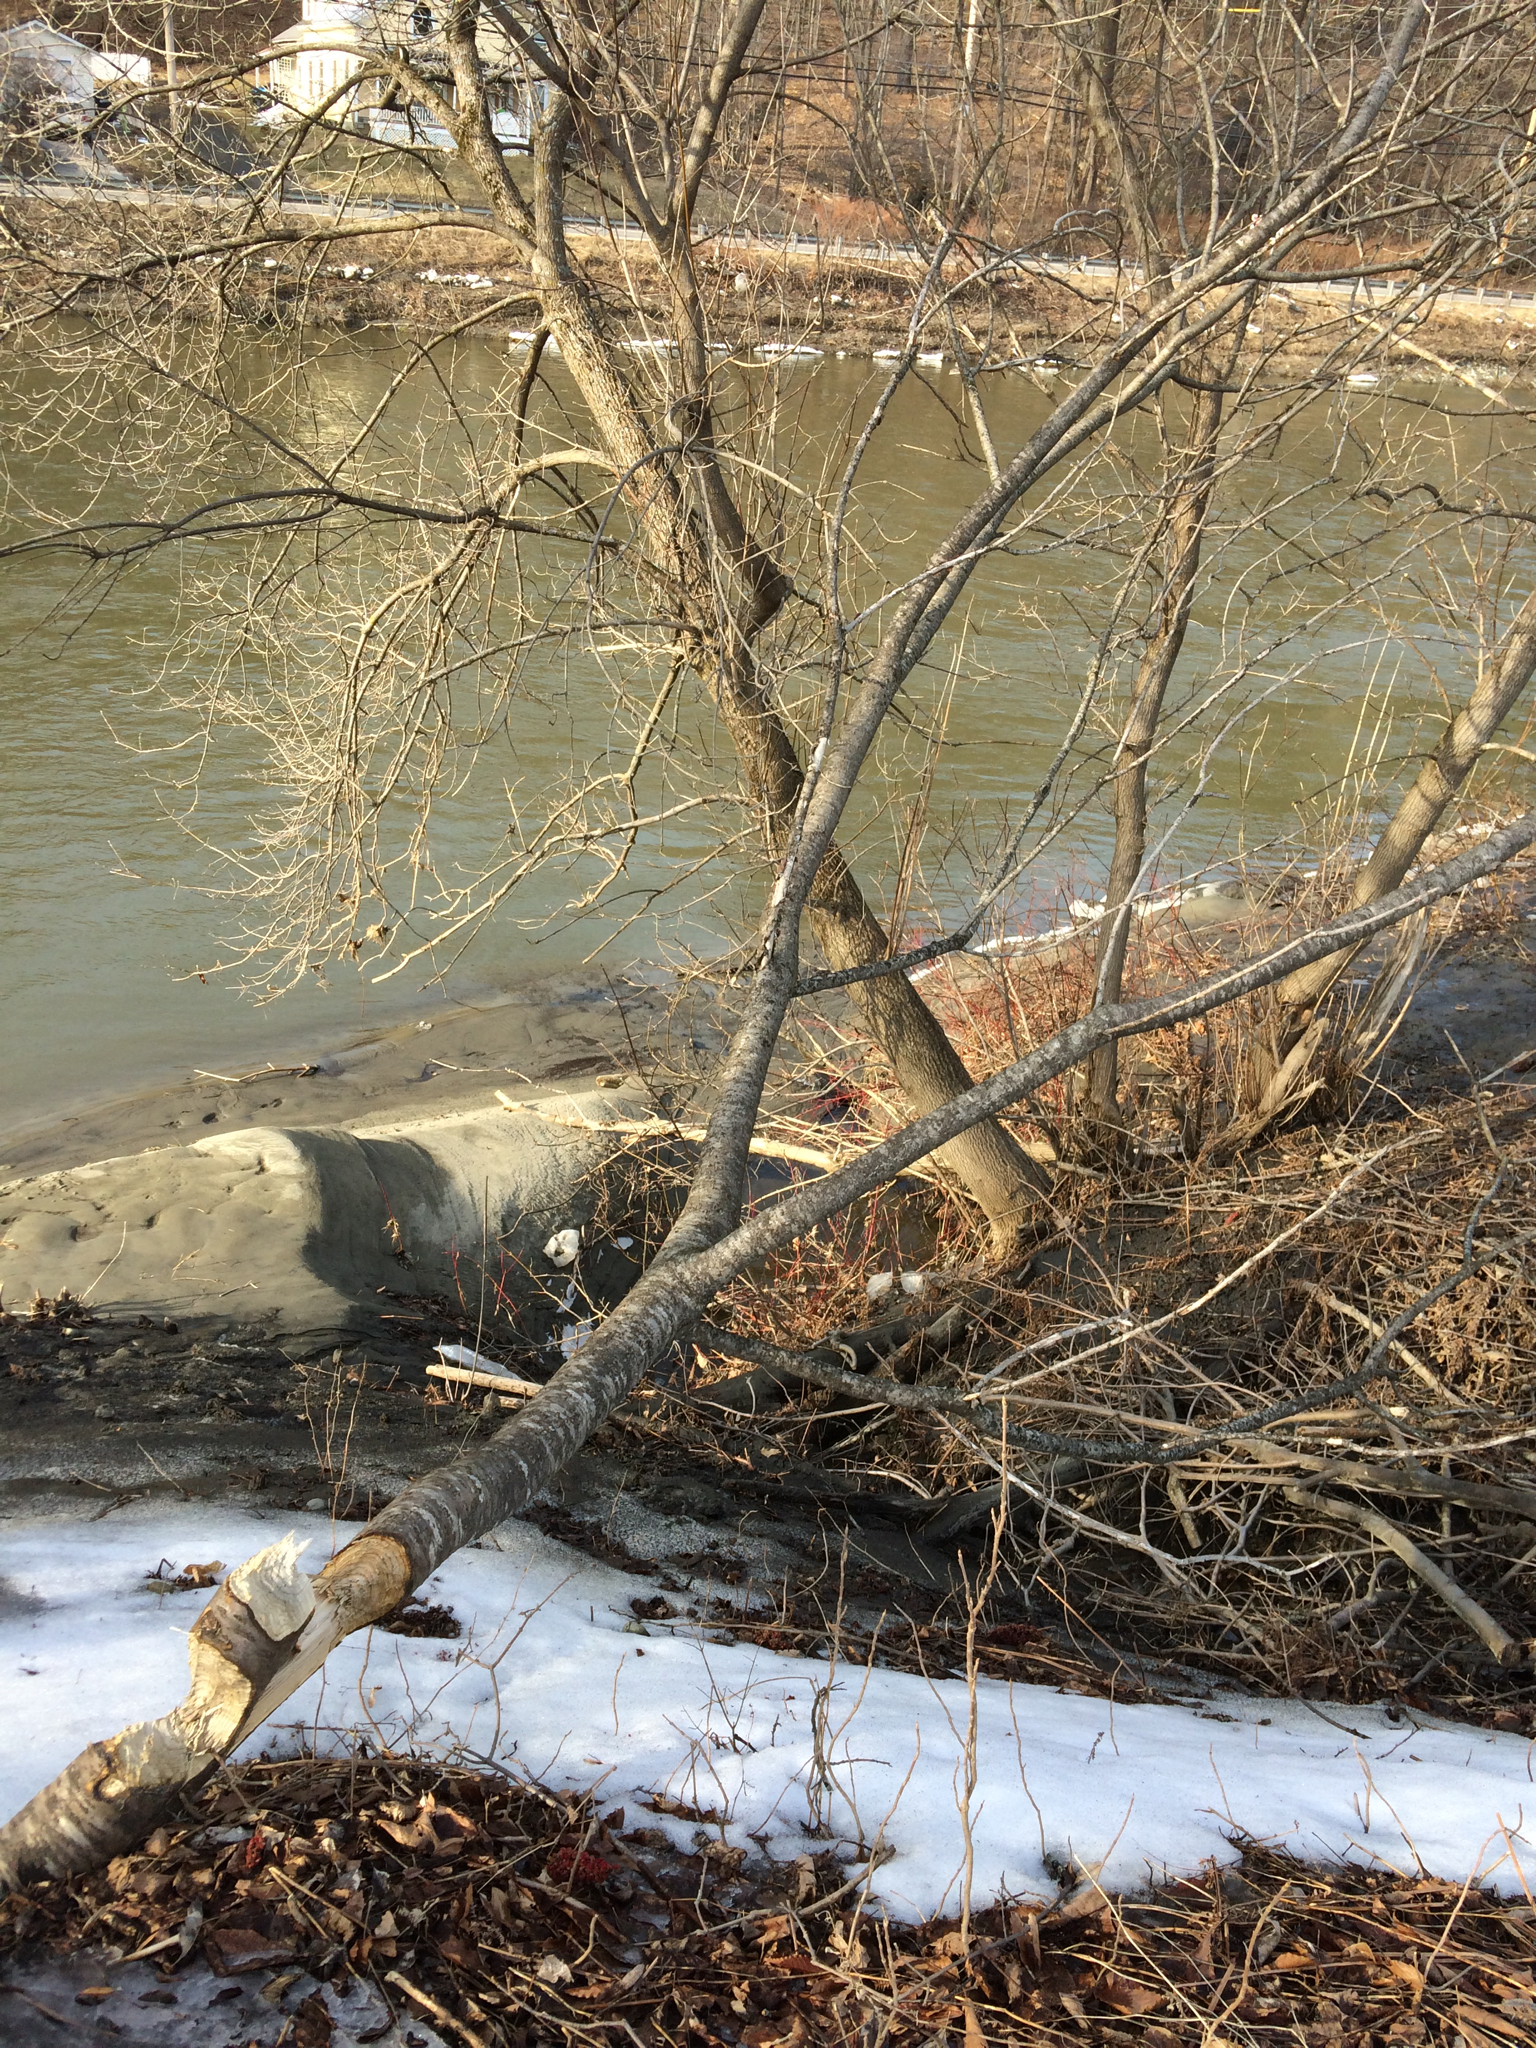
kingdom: Animalia
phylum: Chordata
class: Mammalia
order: Rodentia
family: Castoridae
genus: Castor
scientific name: Castor canadensis
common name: American beaver
